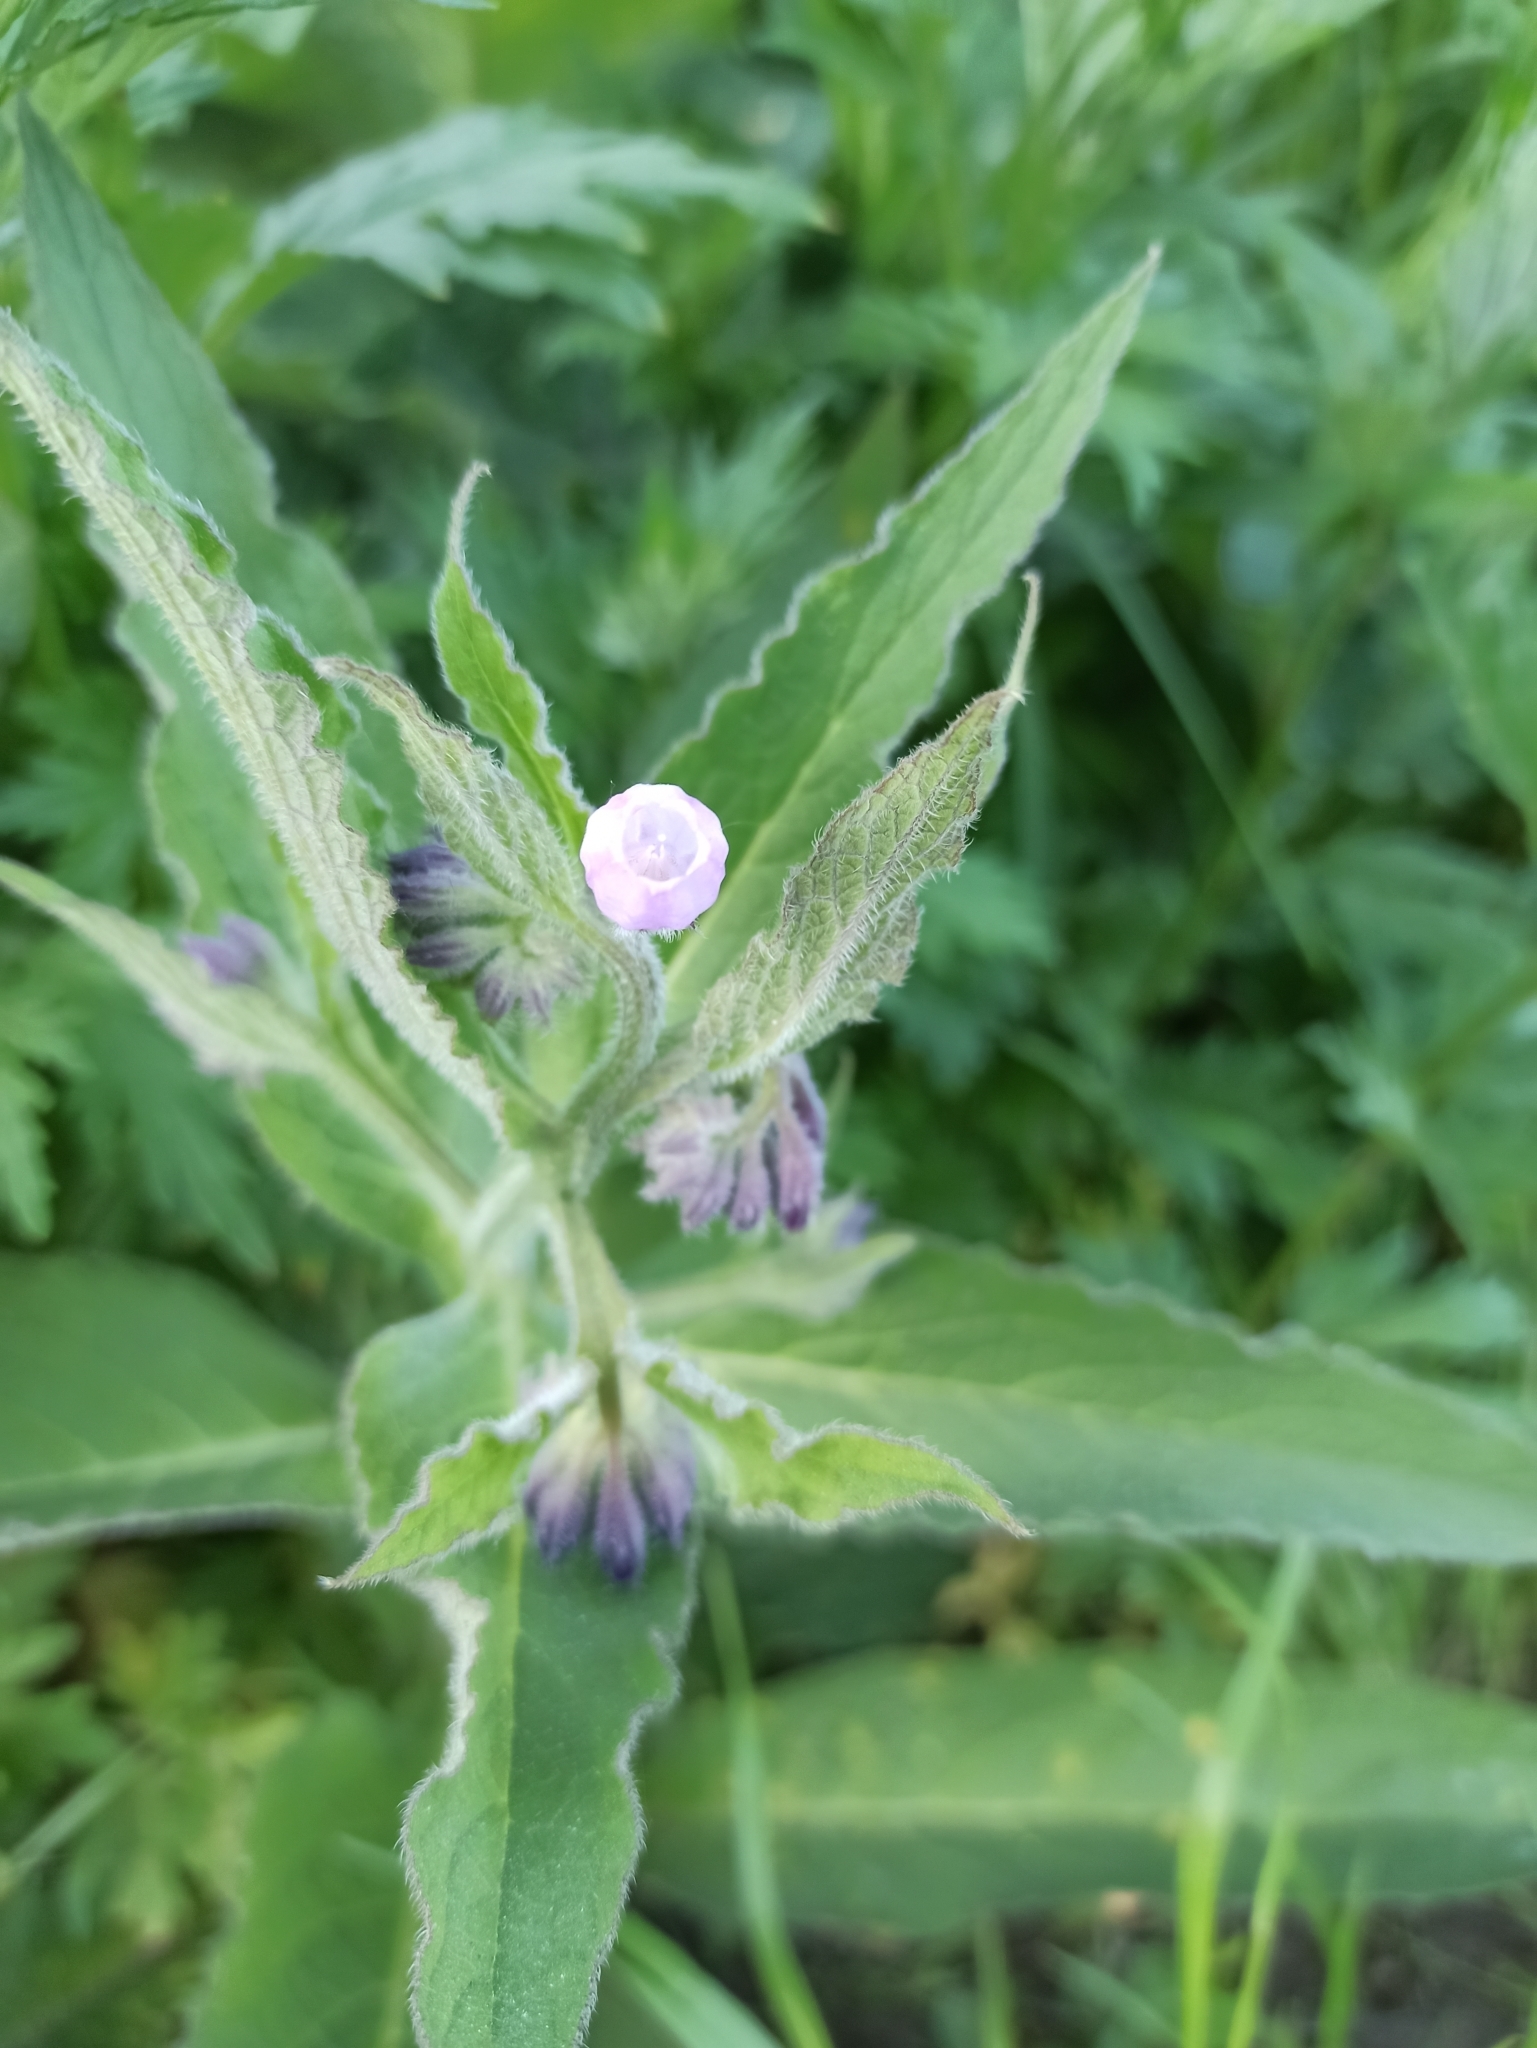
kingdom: Plantae
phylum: Tracheophyta
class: Magnoliopsida
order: Boraginales
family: Boraginaceae
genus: Symphytum
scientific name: Symphytum officinale
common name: Common comfrey
